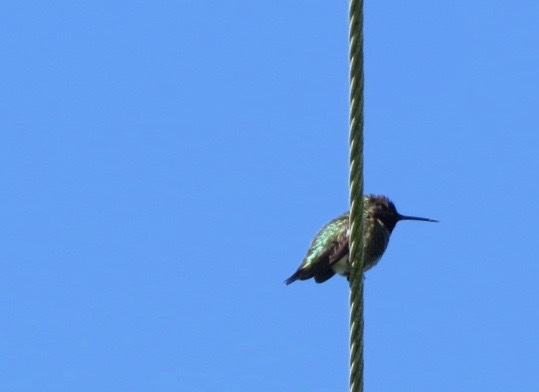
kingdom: Animalia
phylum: Chordata
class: Aves
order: Apodiformes
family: Trochilidae
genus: Calypte
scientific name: Calypte anna
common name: Anna's hummingbird
